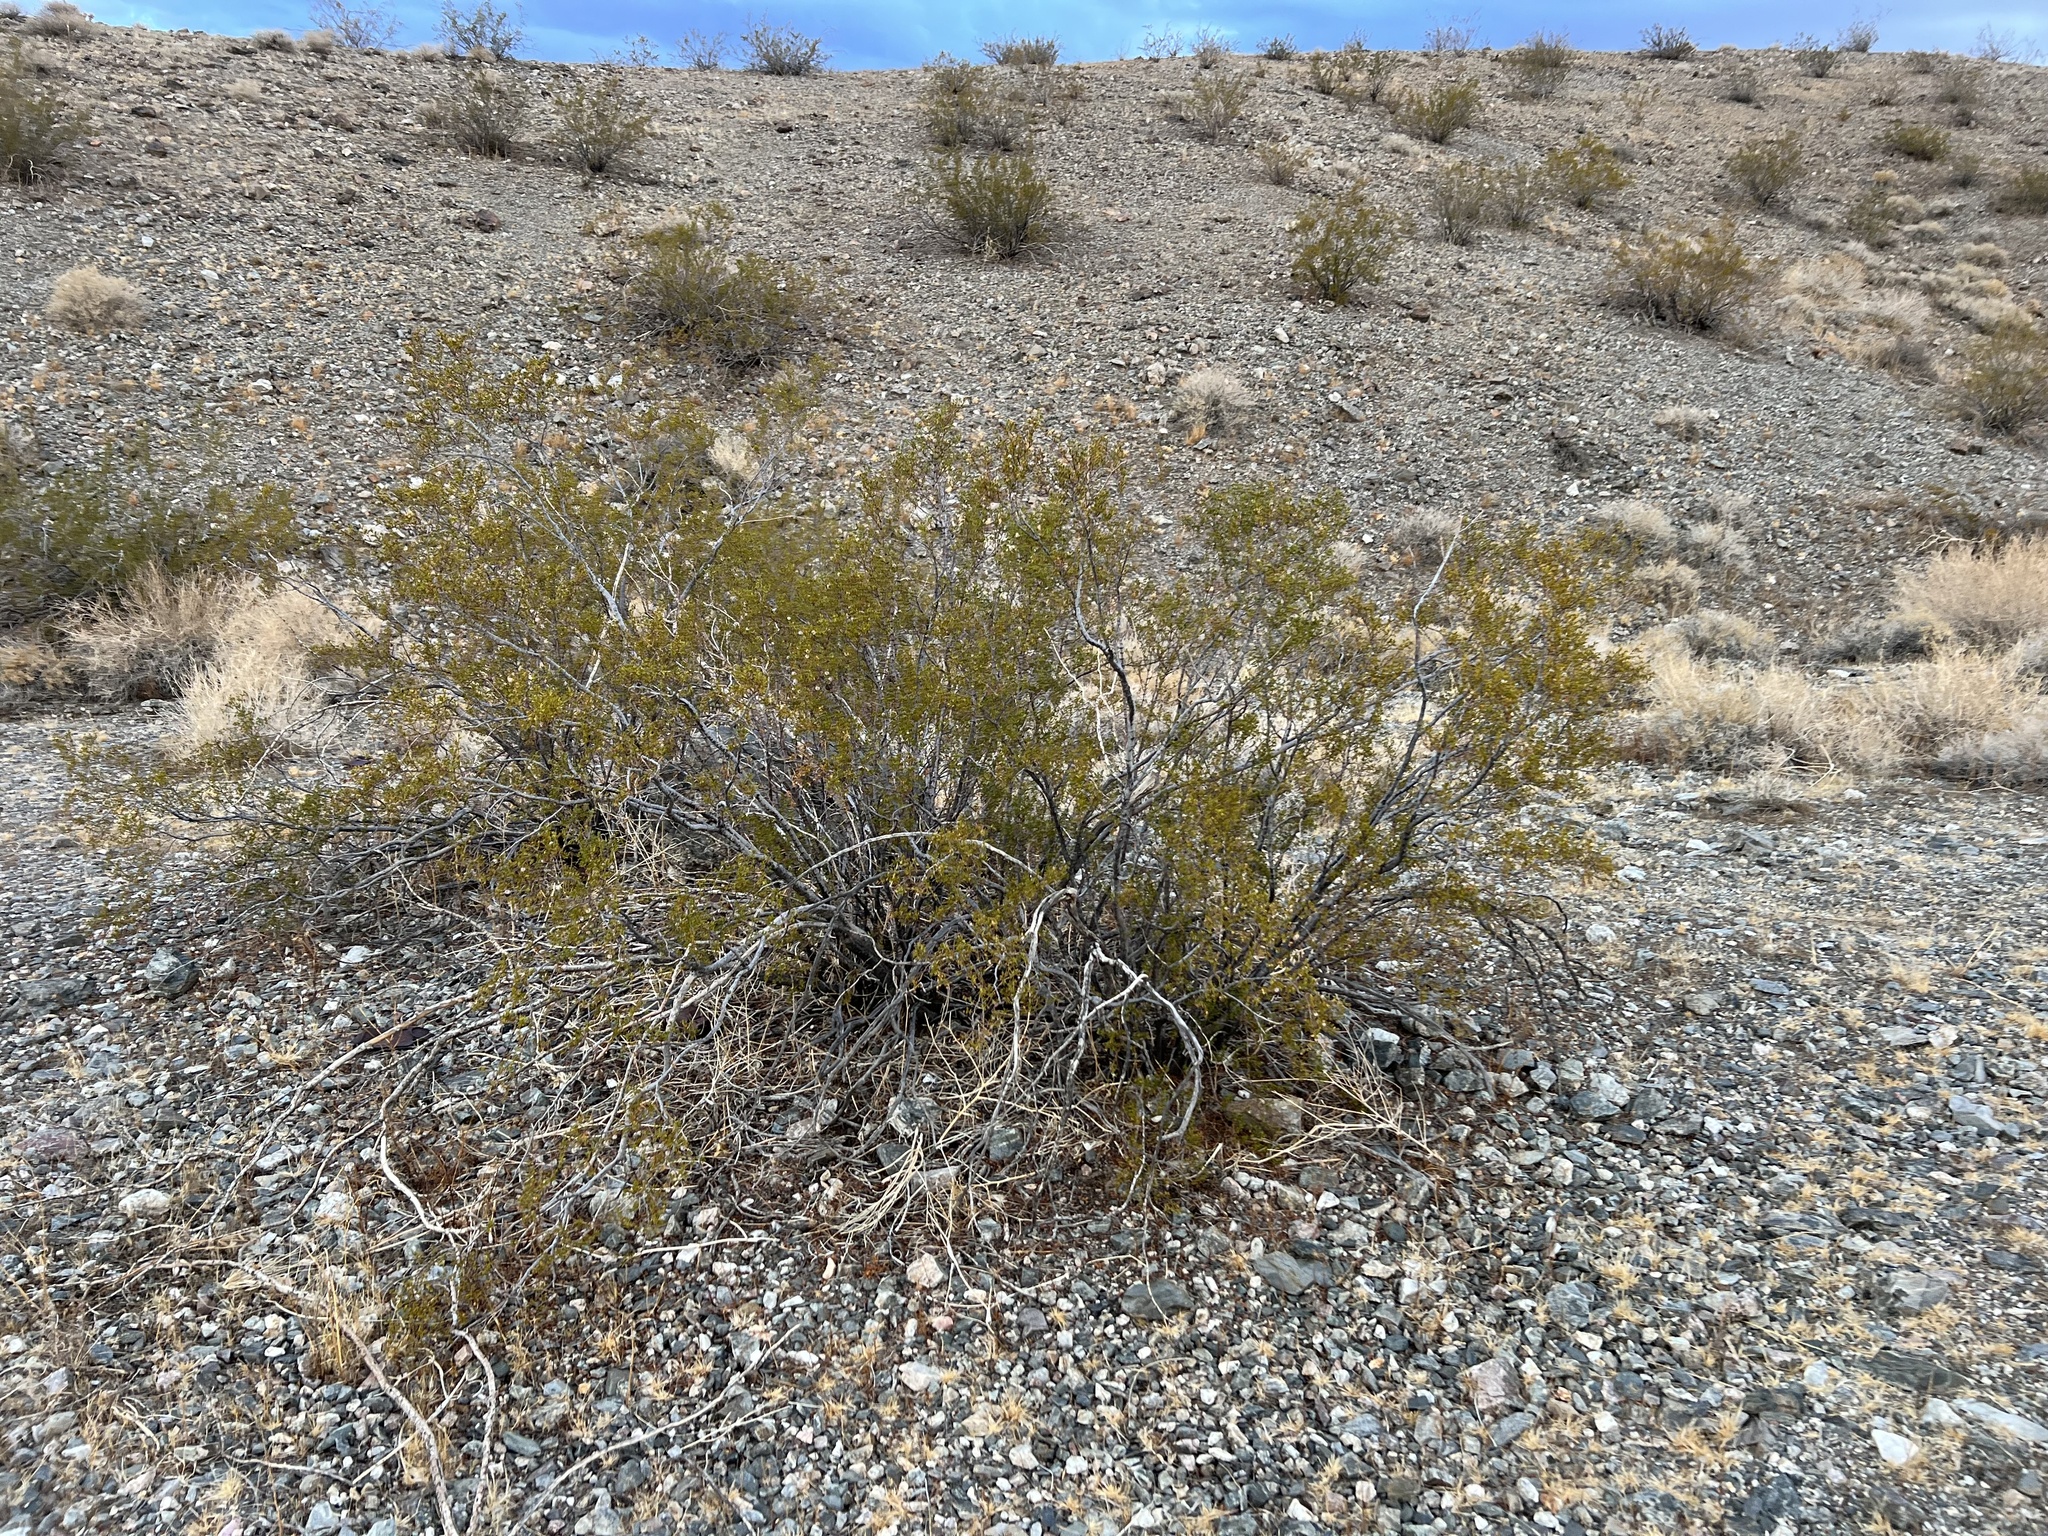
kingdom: Plantae
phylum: Tracheophyta
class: Magnoliopsida
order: Zygophyllales
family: Zygophyllaceae
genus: Larrea
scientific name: Larrea tridentata
